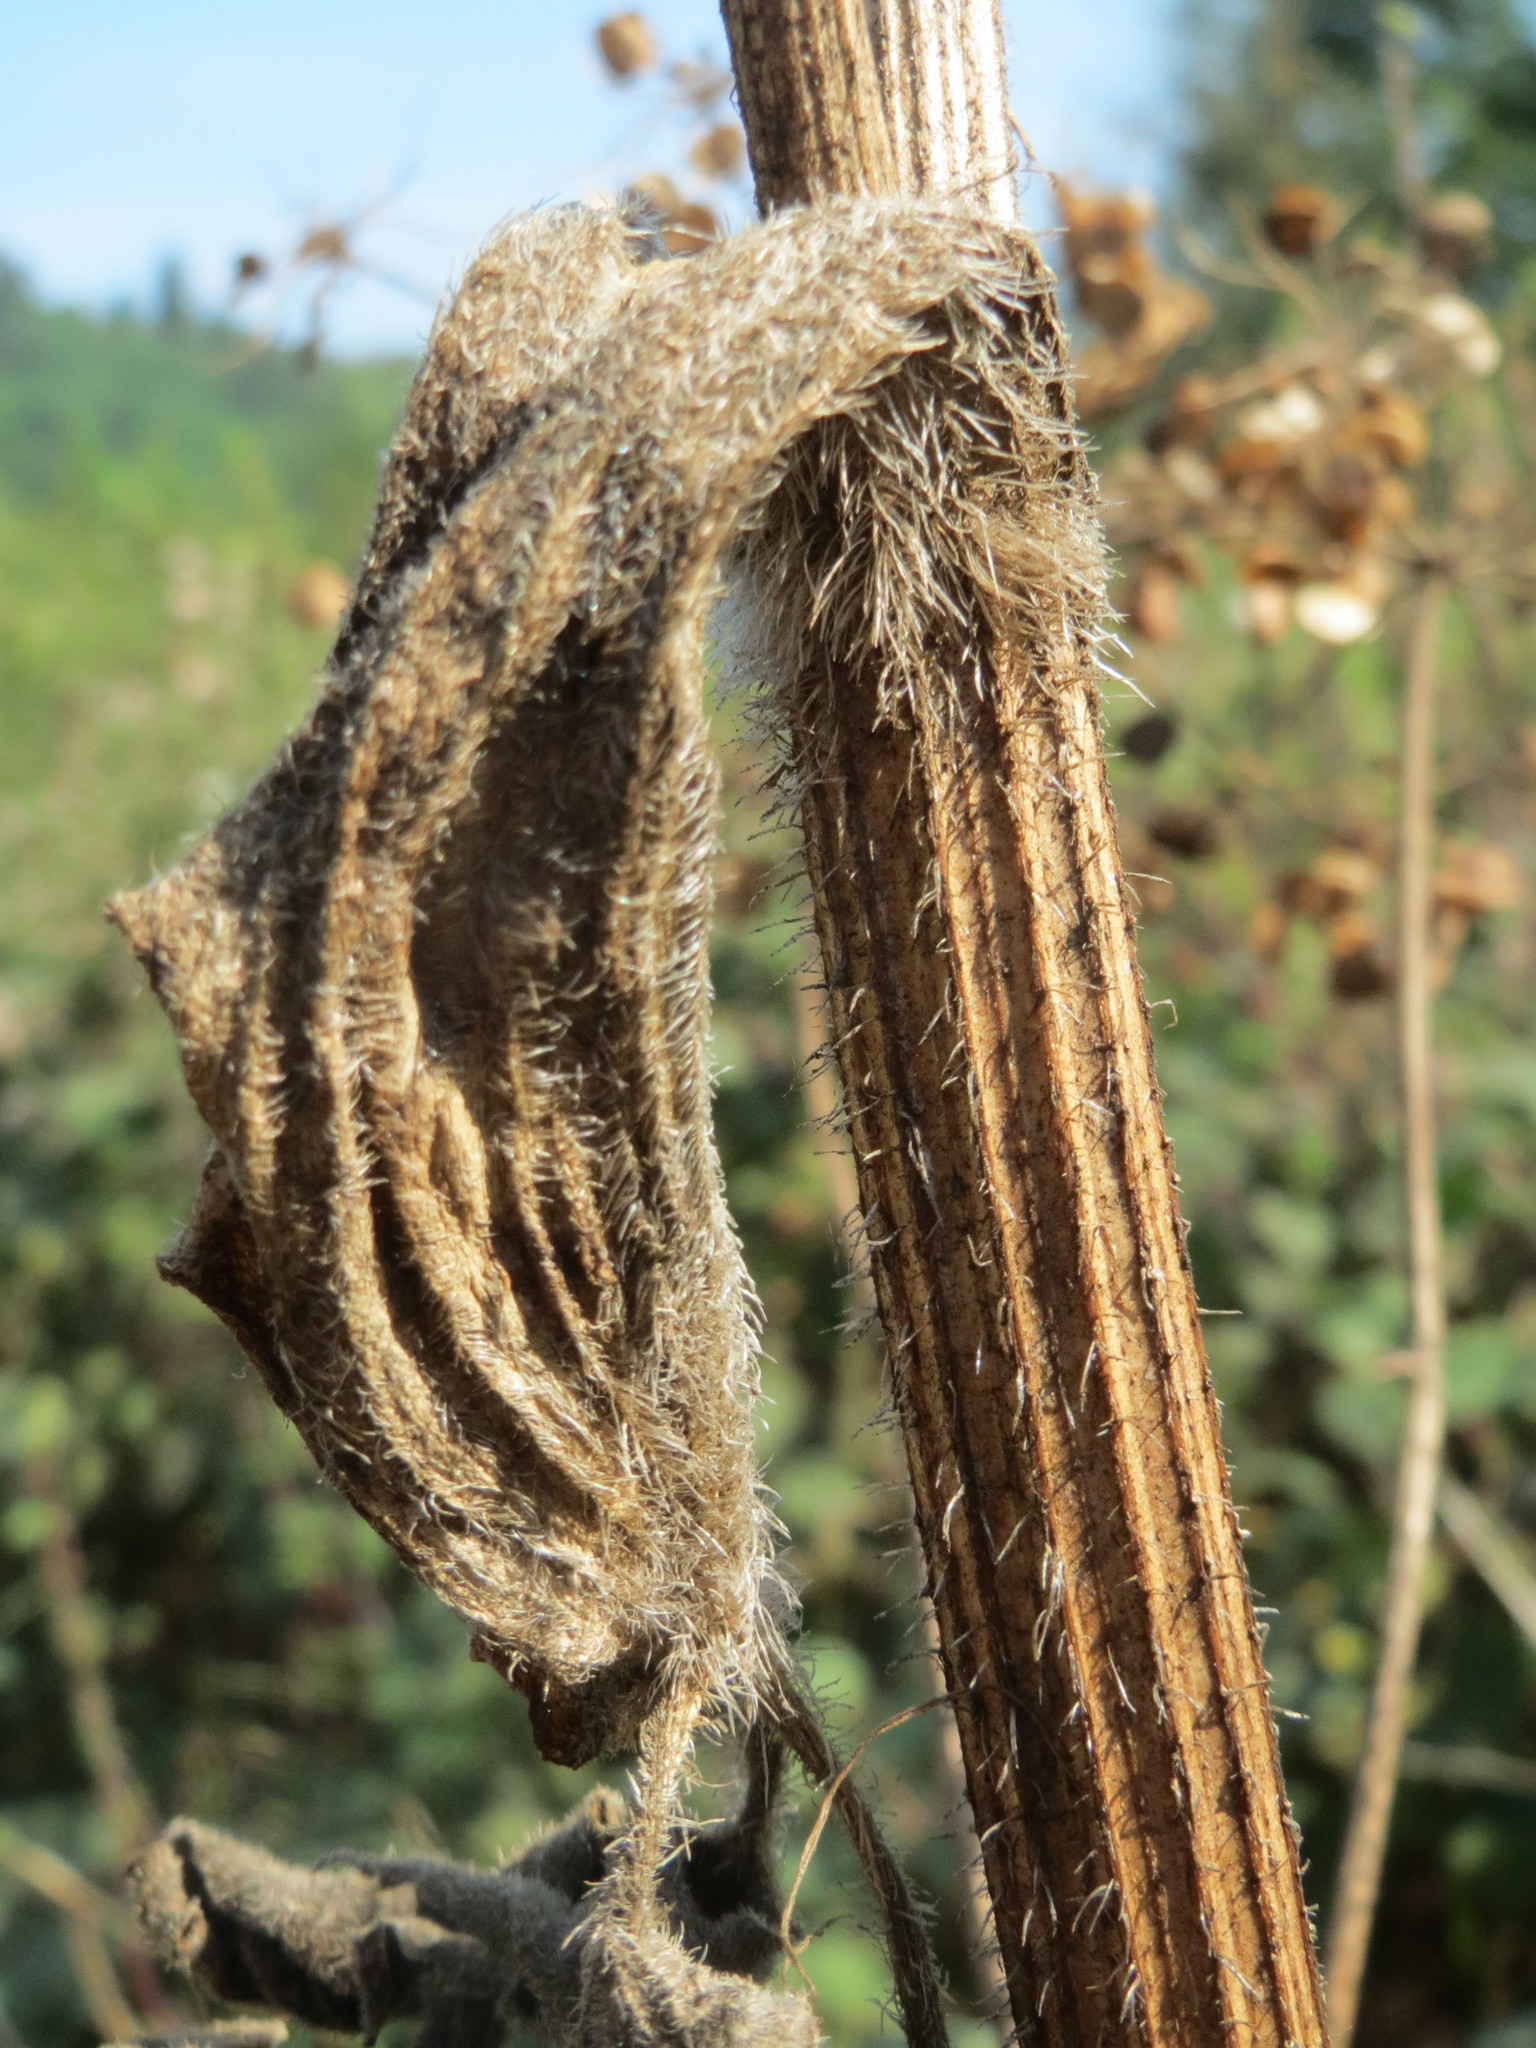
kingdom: Plantae
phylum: Tracheophyta
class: Magnoliopsida
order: Apiales
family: Apiaceae
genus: Heracleum
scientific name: Heracleum sphondylium
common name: Hogweed
